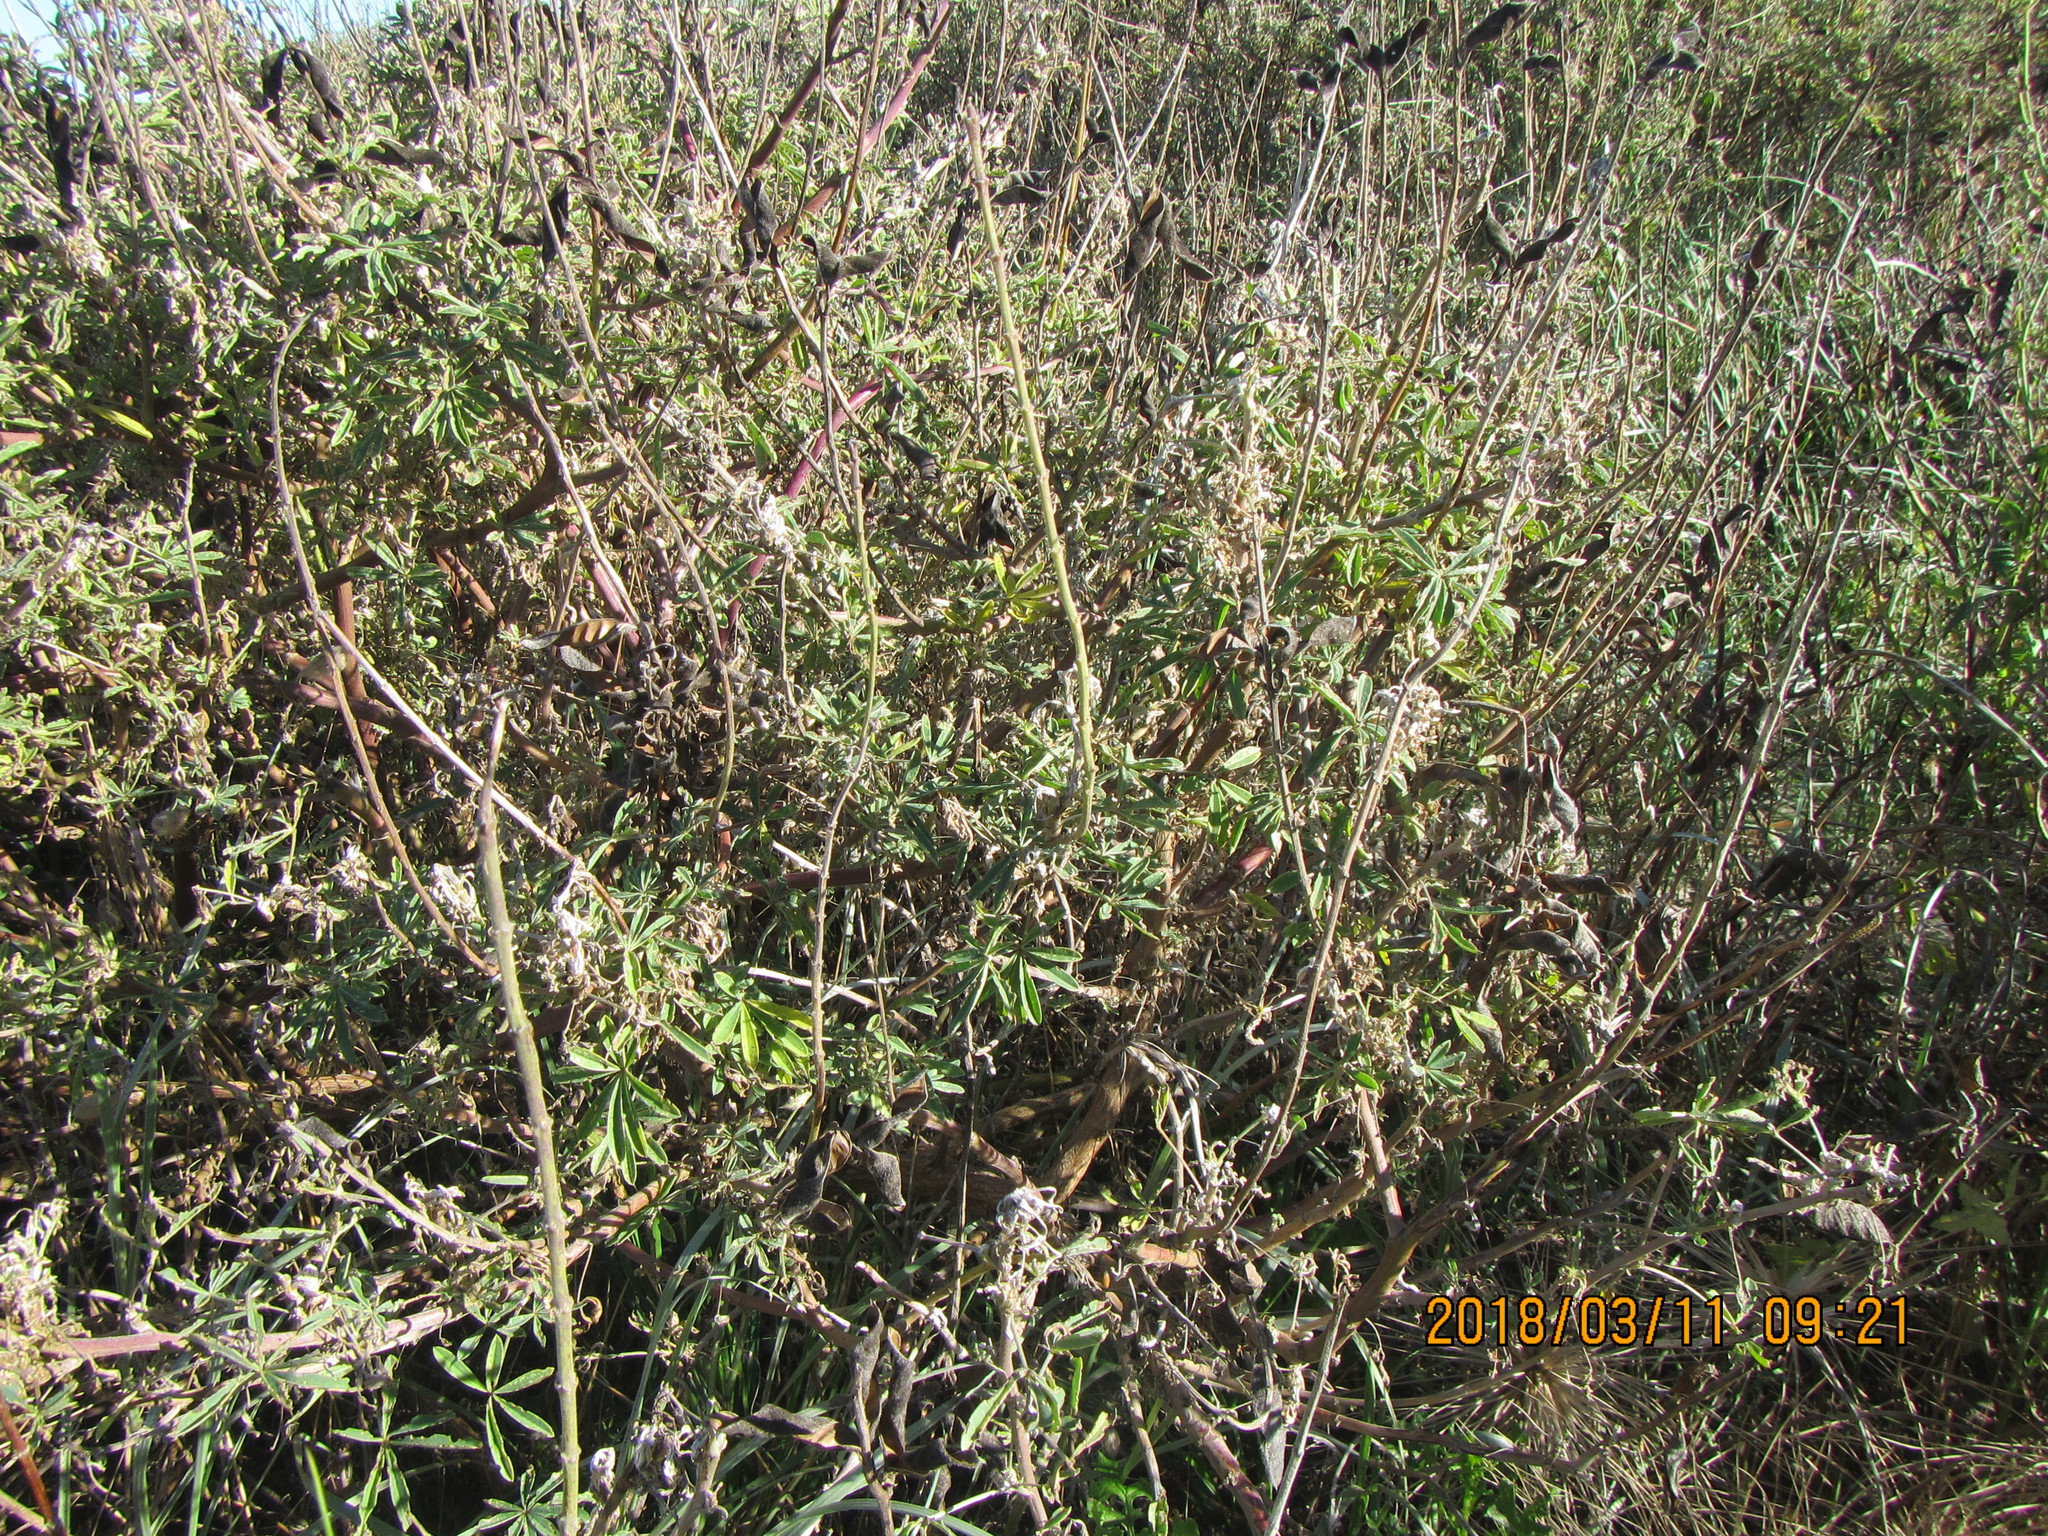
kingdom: Plantae
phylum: Tracheophyta
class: Magnoliopsida
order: Fabales
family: Fabaceae
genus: Lupinus
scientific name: Lupinus arboreus
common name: Yellow bush lupine
